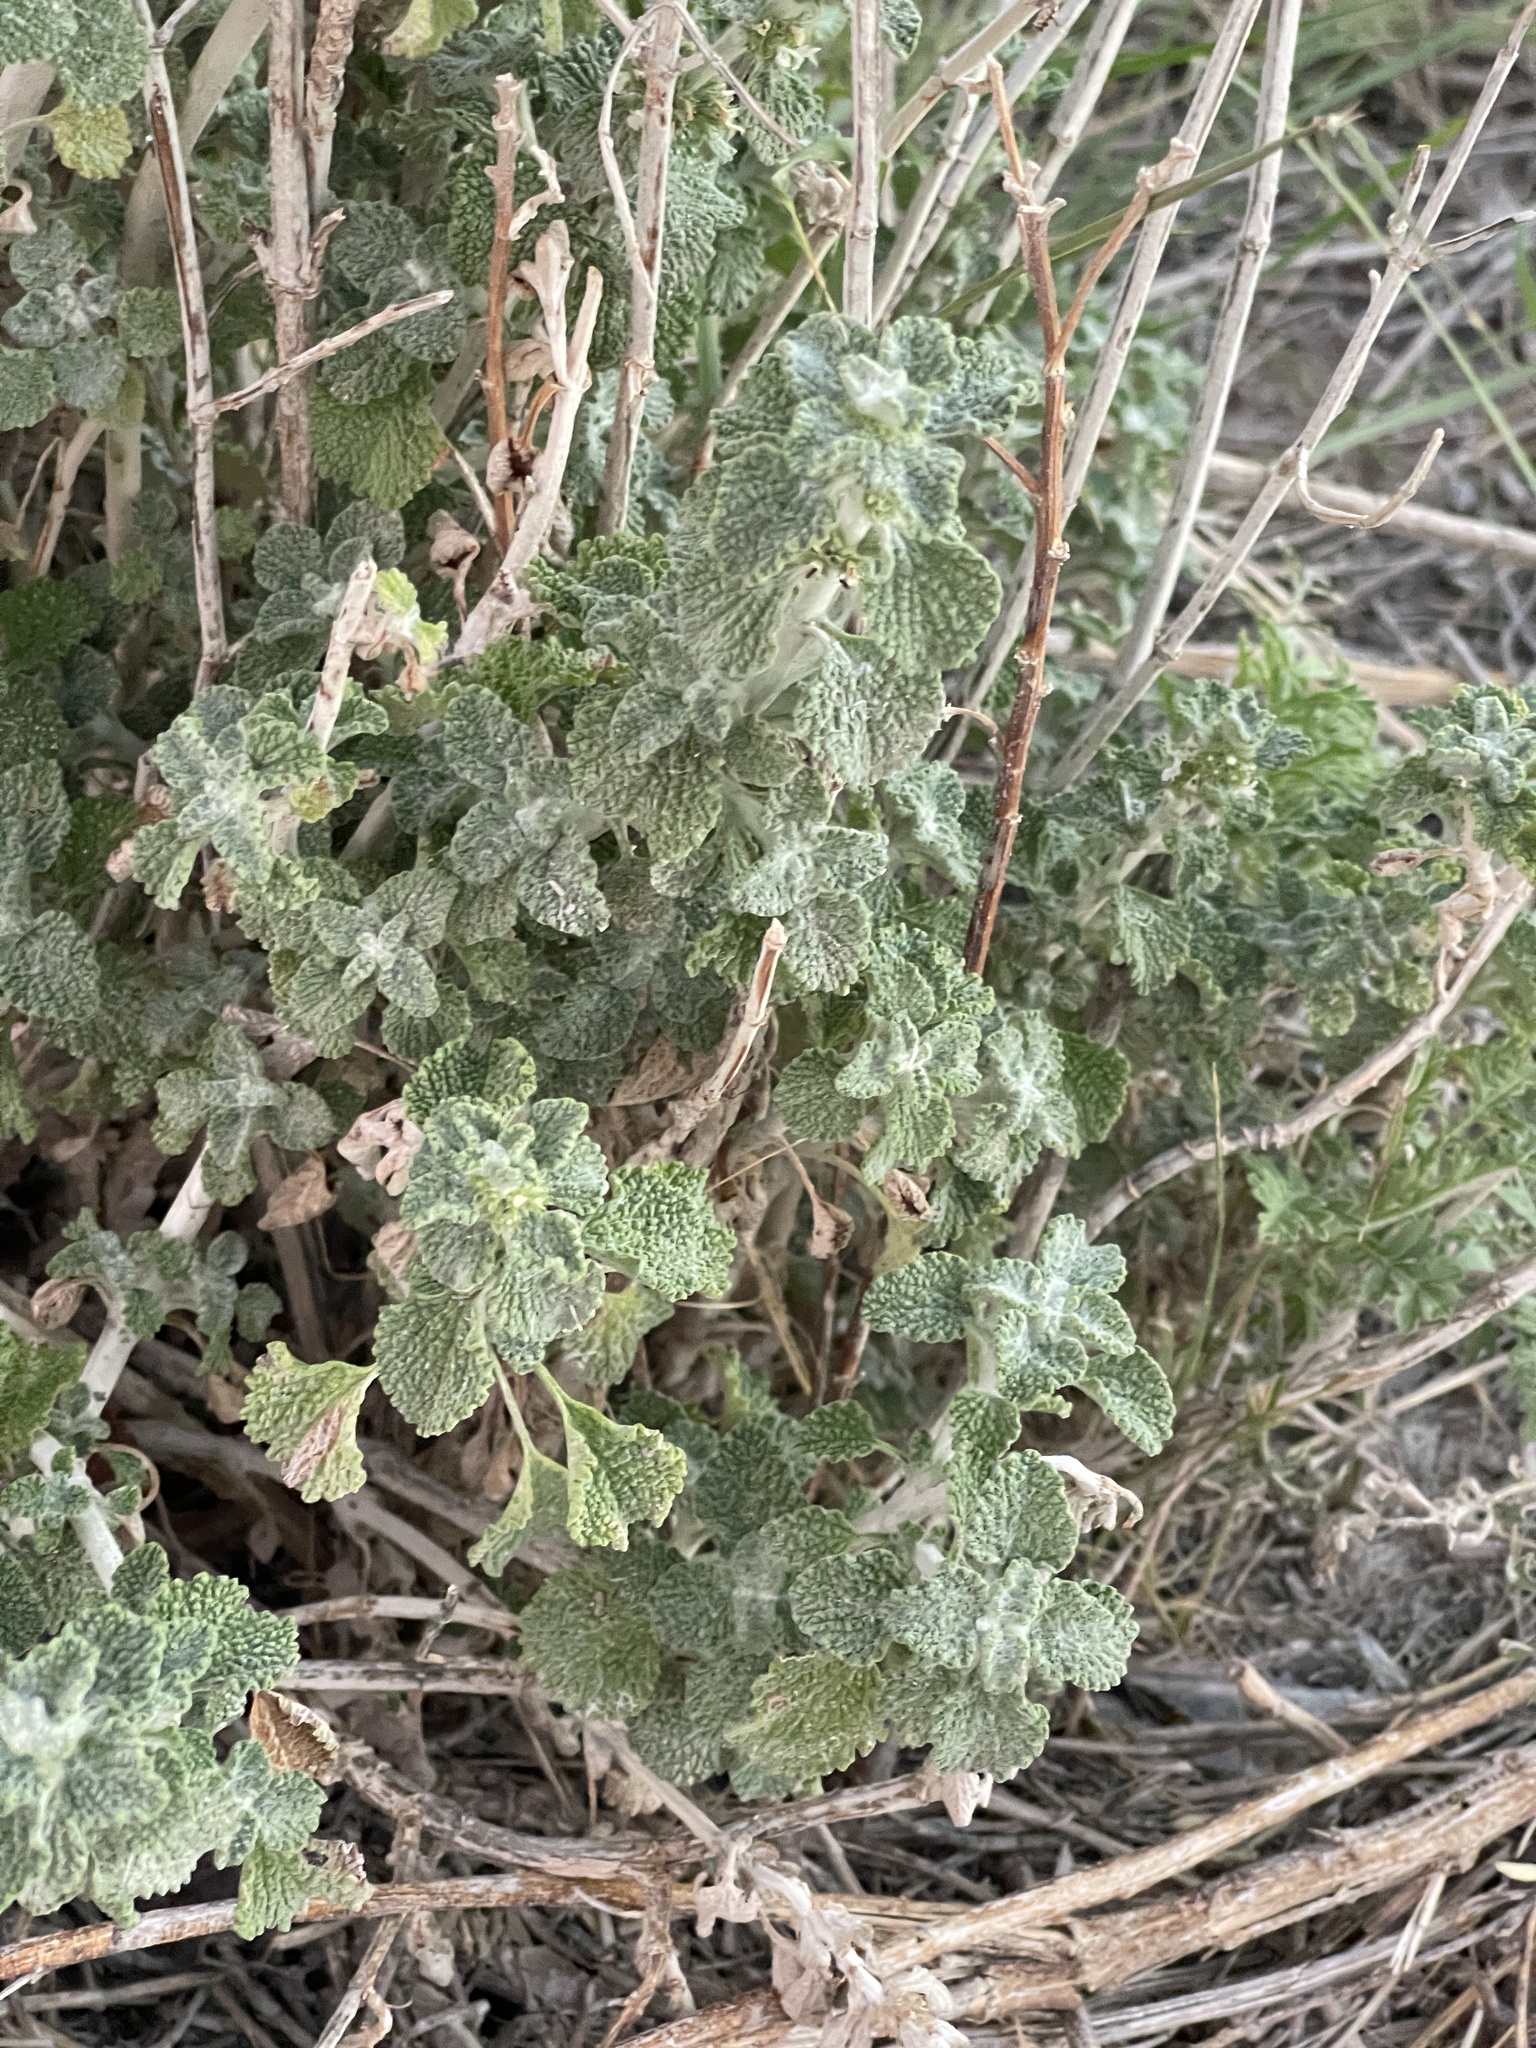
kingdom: Plantae
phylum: Tracheophyta
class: Magnoliopsida
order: Lamiales
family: Lamiaceae
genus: Marrubium
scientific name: Marrubium vulgare
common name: Horehound
